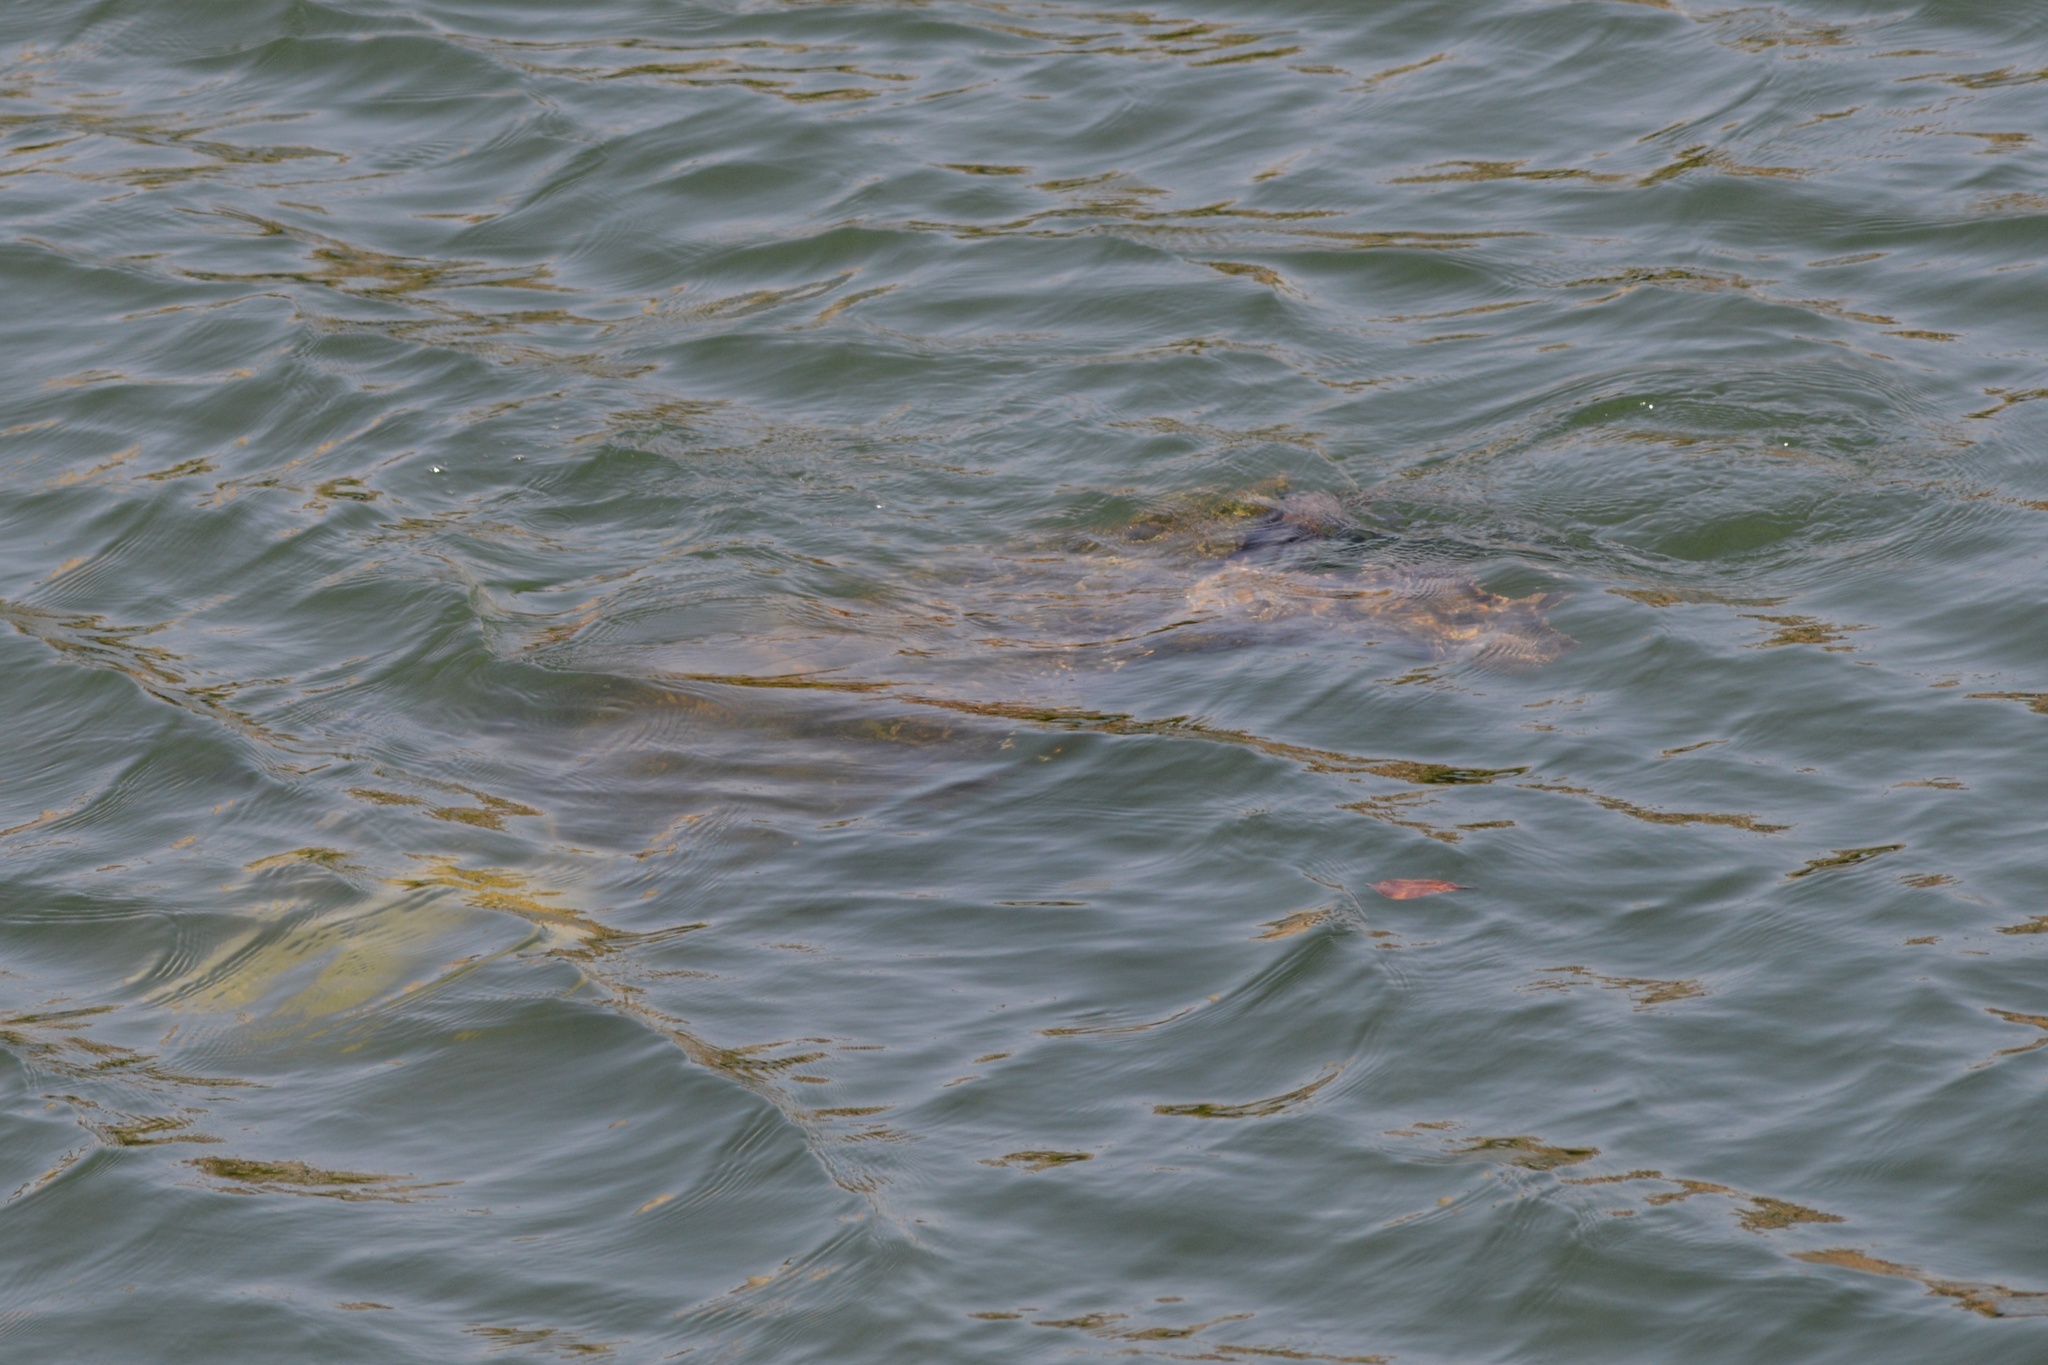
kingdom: Animalia
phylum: Chordata
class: Testudines
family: Cheloniidae
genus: Chelonia
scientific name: Chelonia mydas
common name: Green turtle
